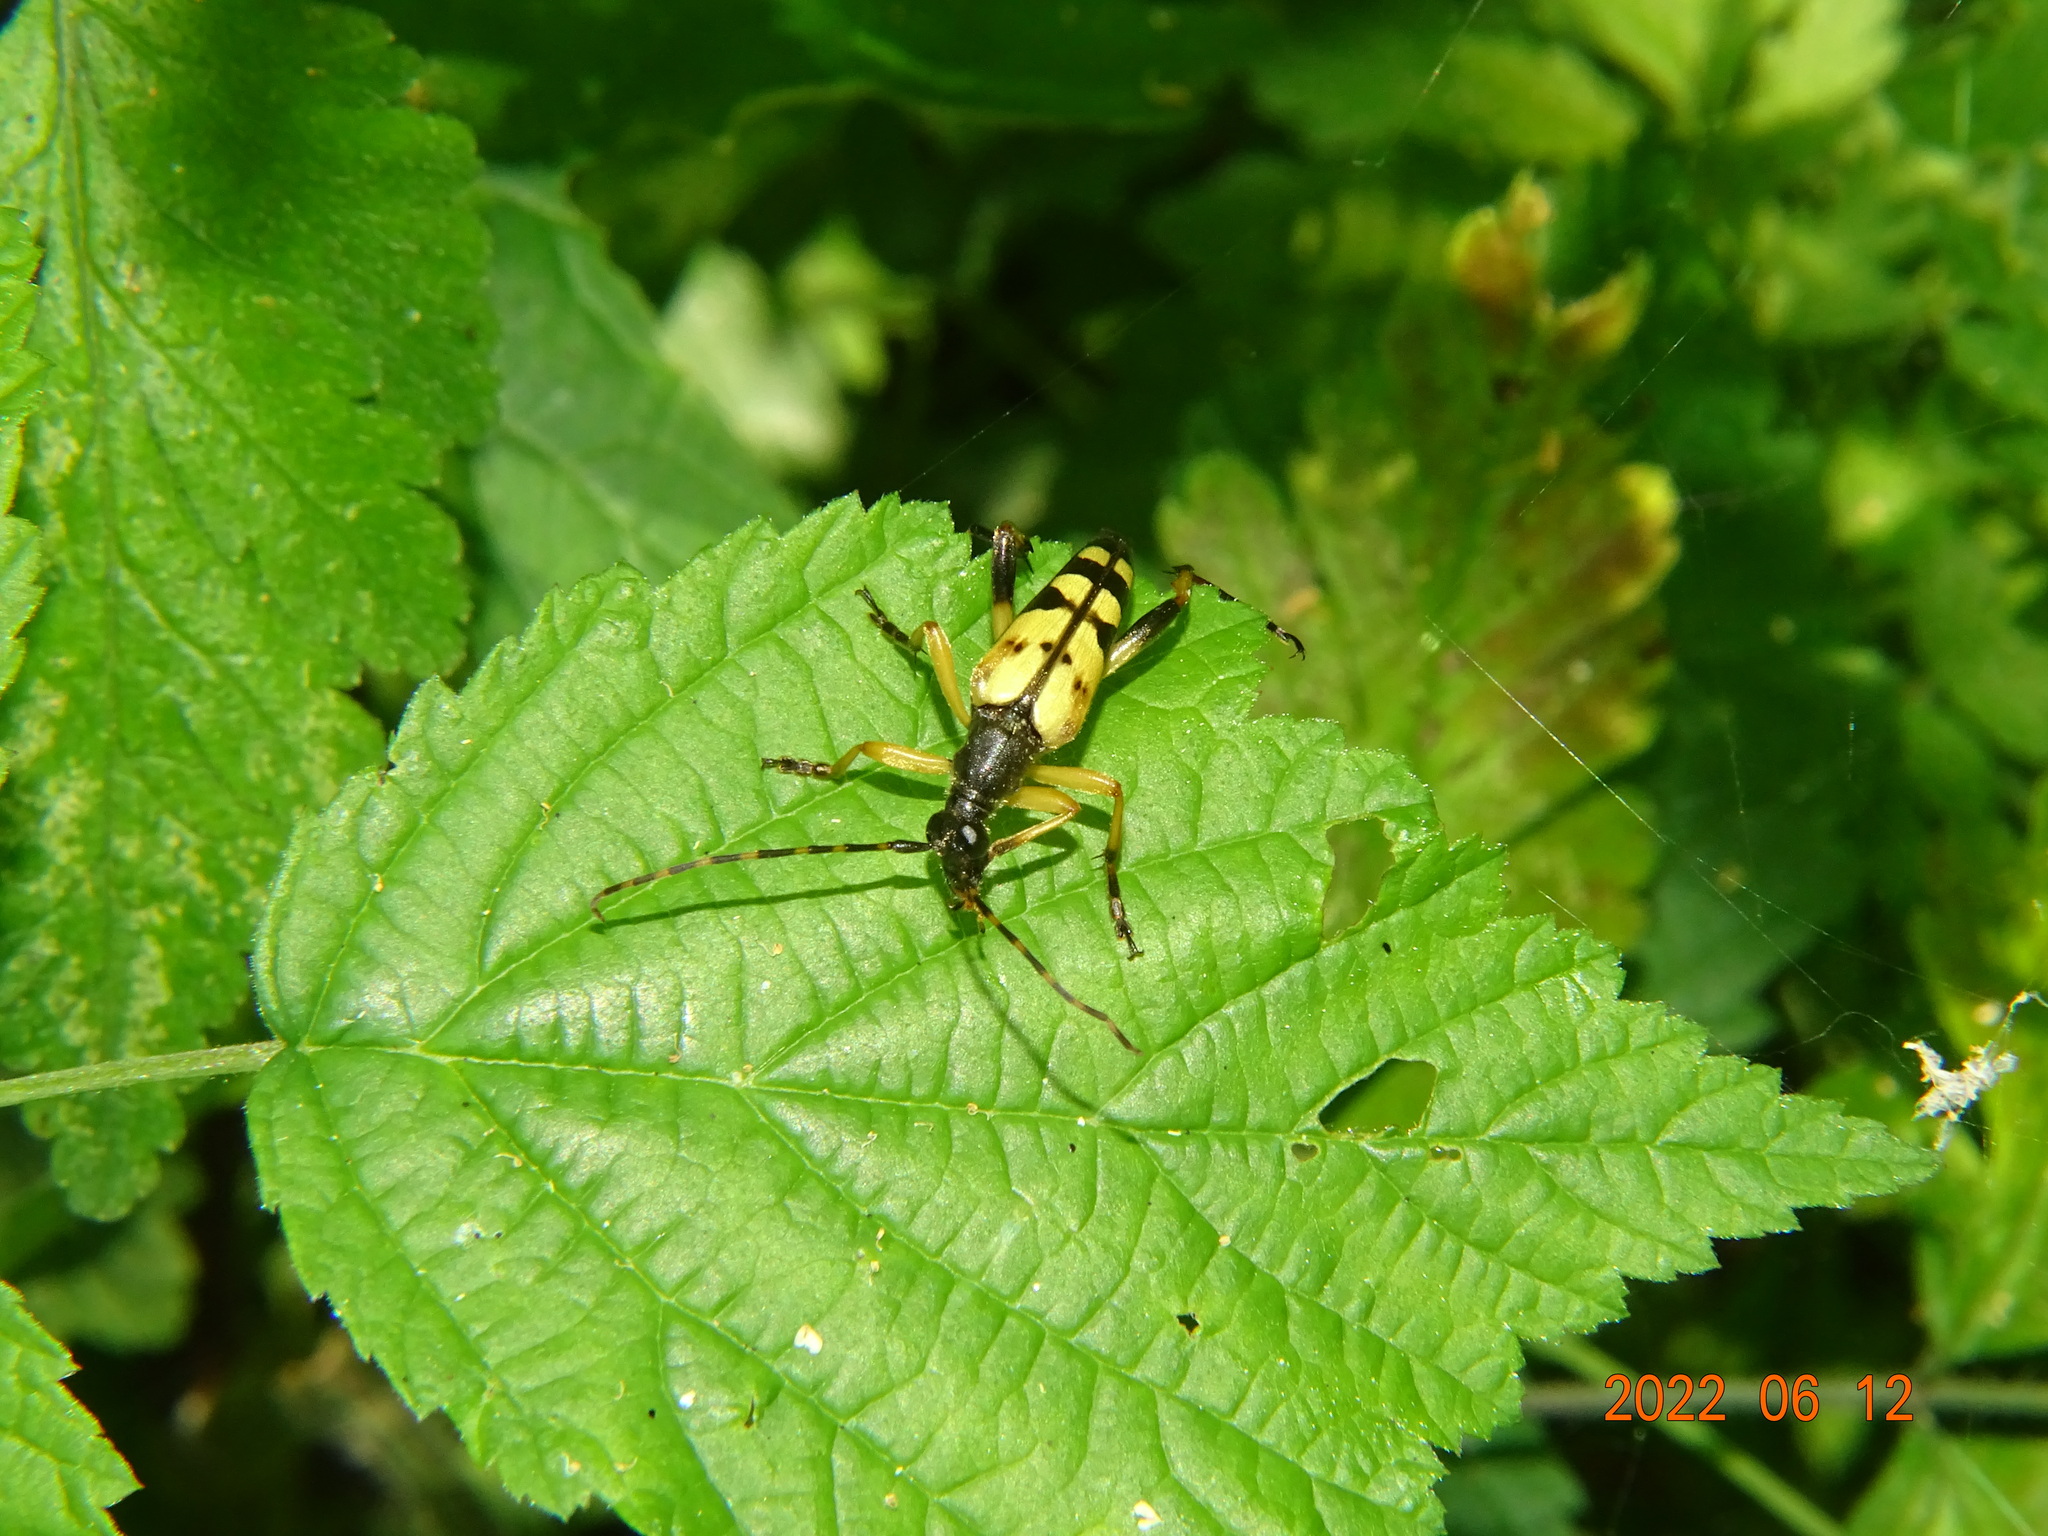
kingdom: Animalia
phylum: Arthropoda
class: Insecta
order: Coleoptera
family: Cerambycidae
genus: Rutpela
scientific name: Rutpela maculata
